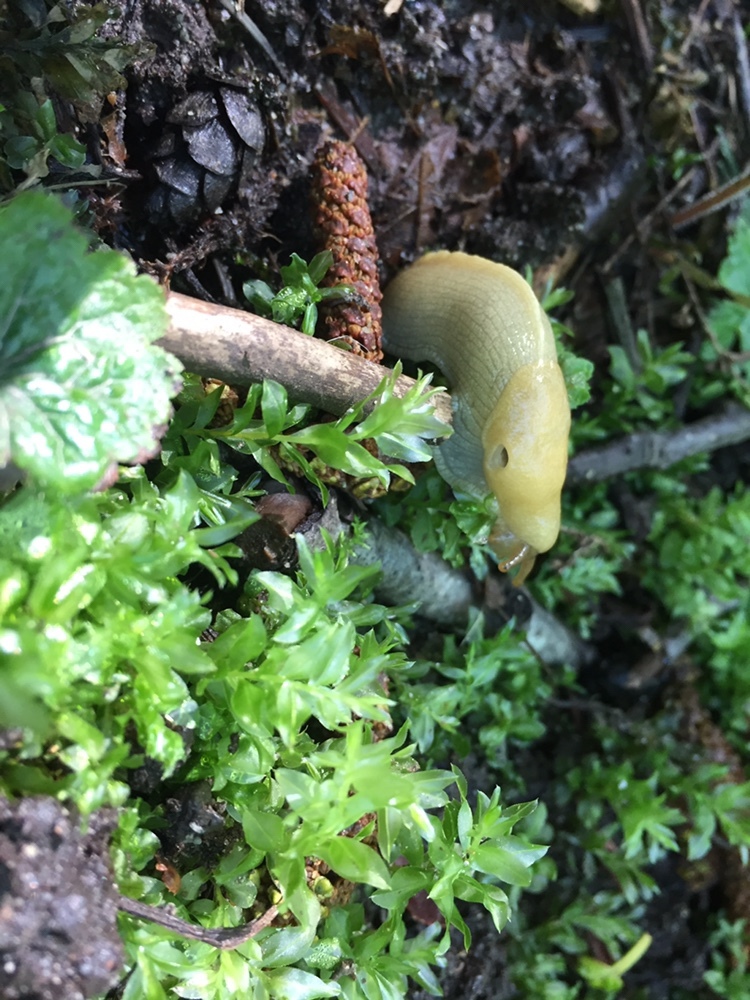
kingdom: Animalia
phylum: Mollusca
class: Gastropoda
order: Stylommatophora
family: Ariolimacidae
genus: Ariolimax
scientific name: Ariolimax columbianus
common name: Pacific banana slug
